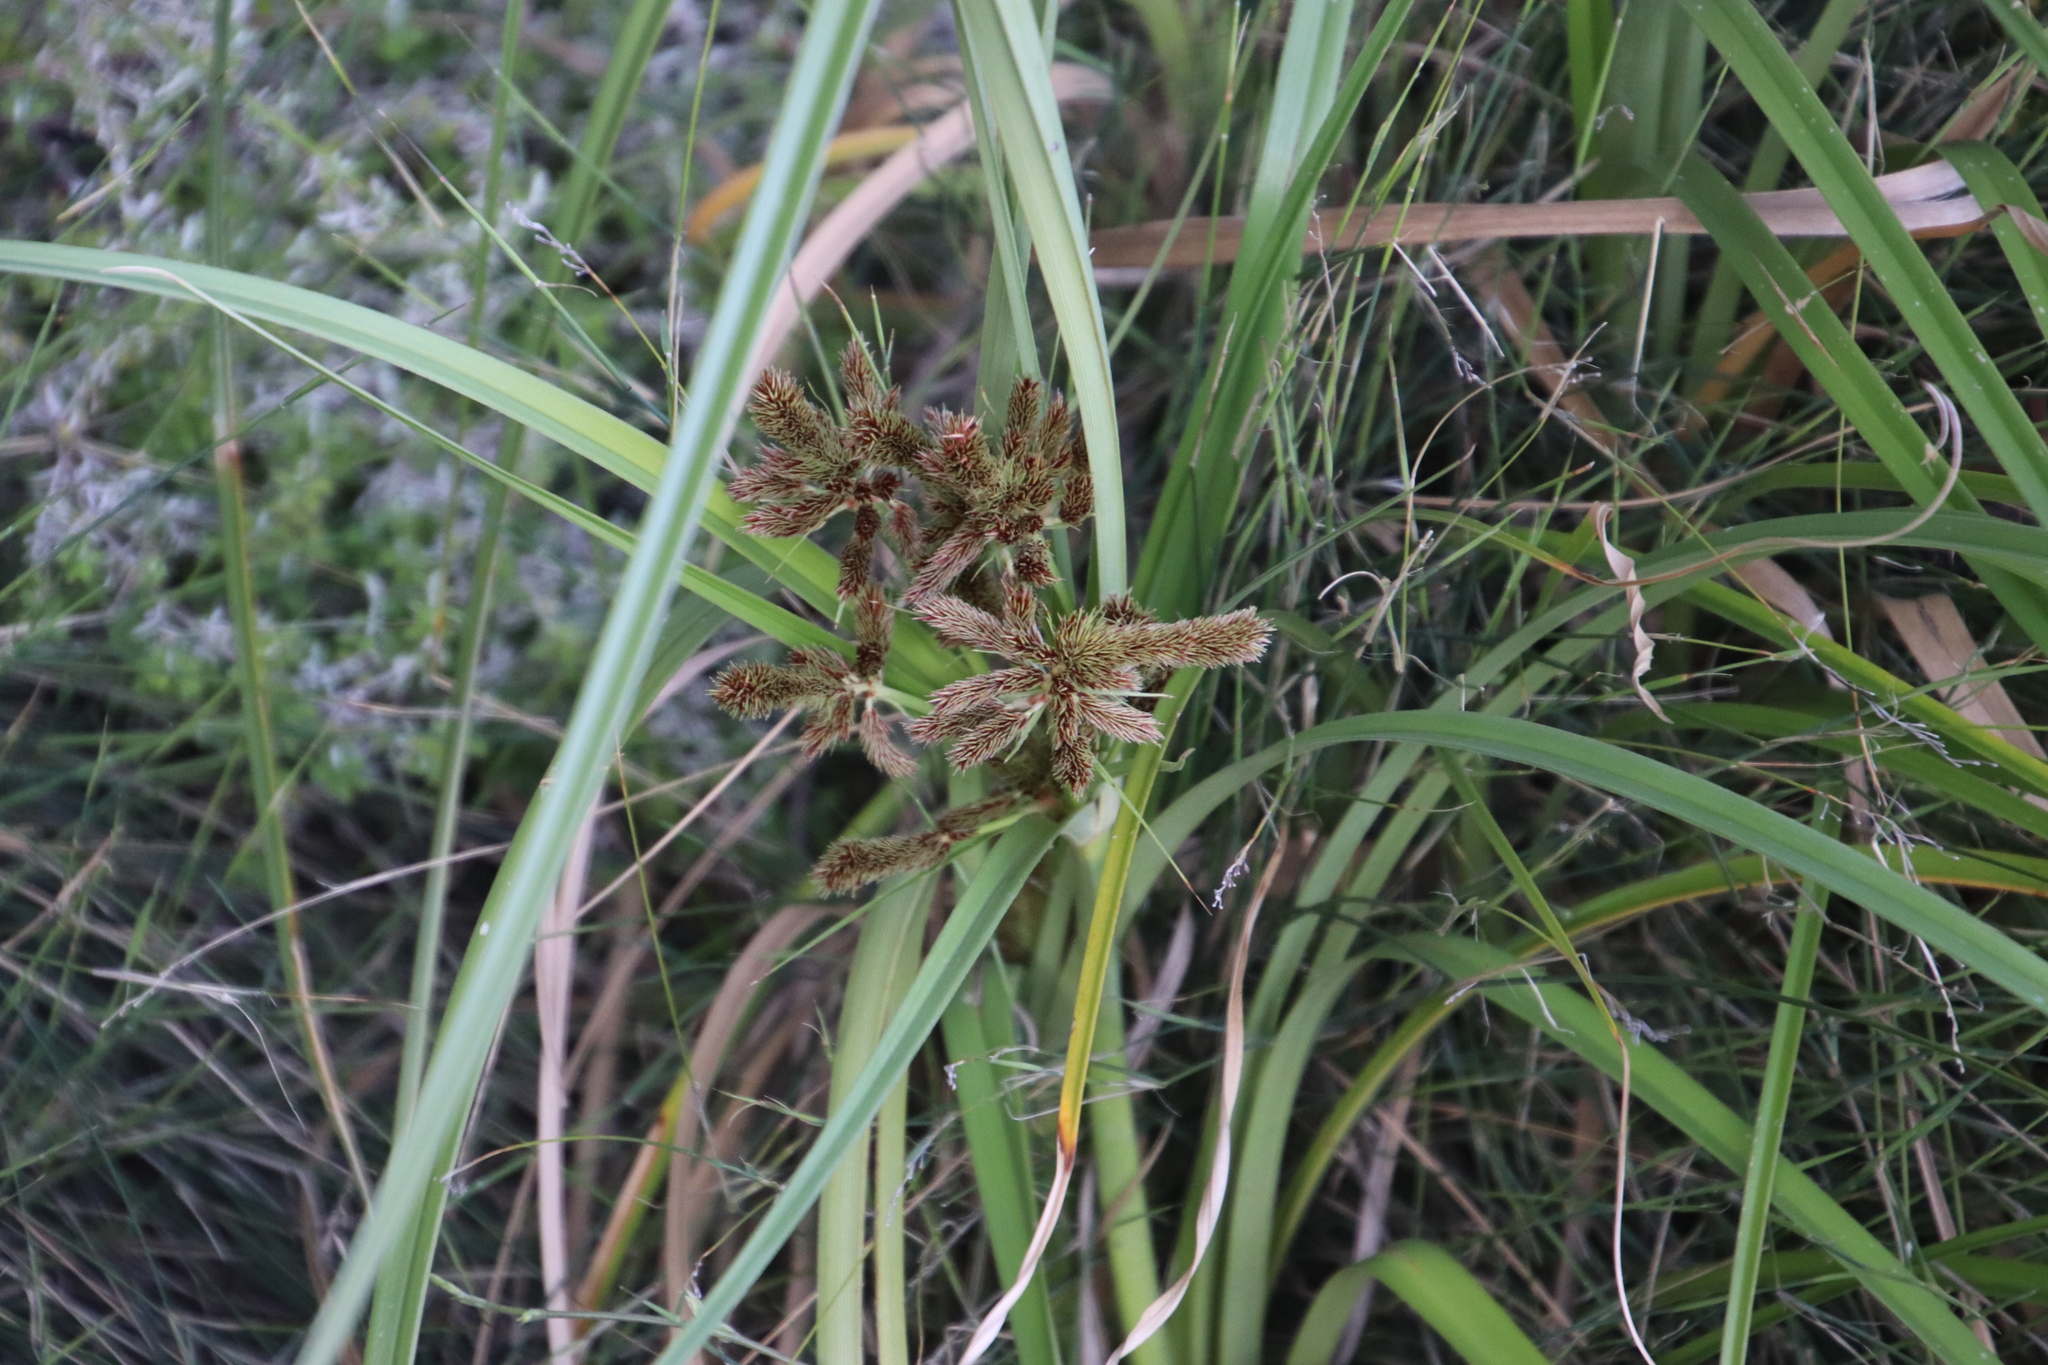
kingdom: Plantae
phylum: Tracheophyta
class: Liliopsida
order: Poales
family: Cyperaceae
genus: Cyperus
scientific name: Cyperus thunbergii
